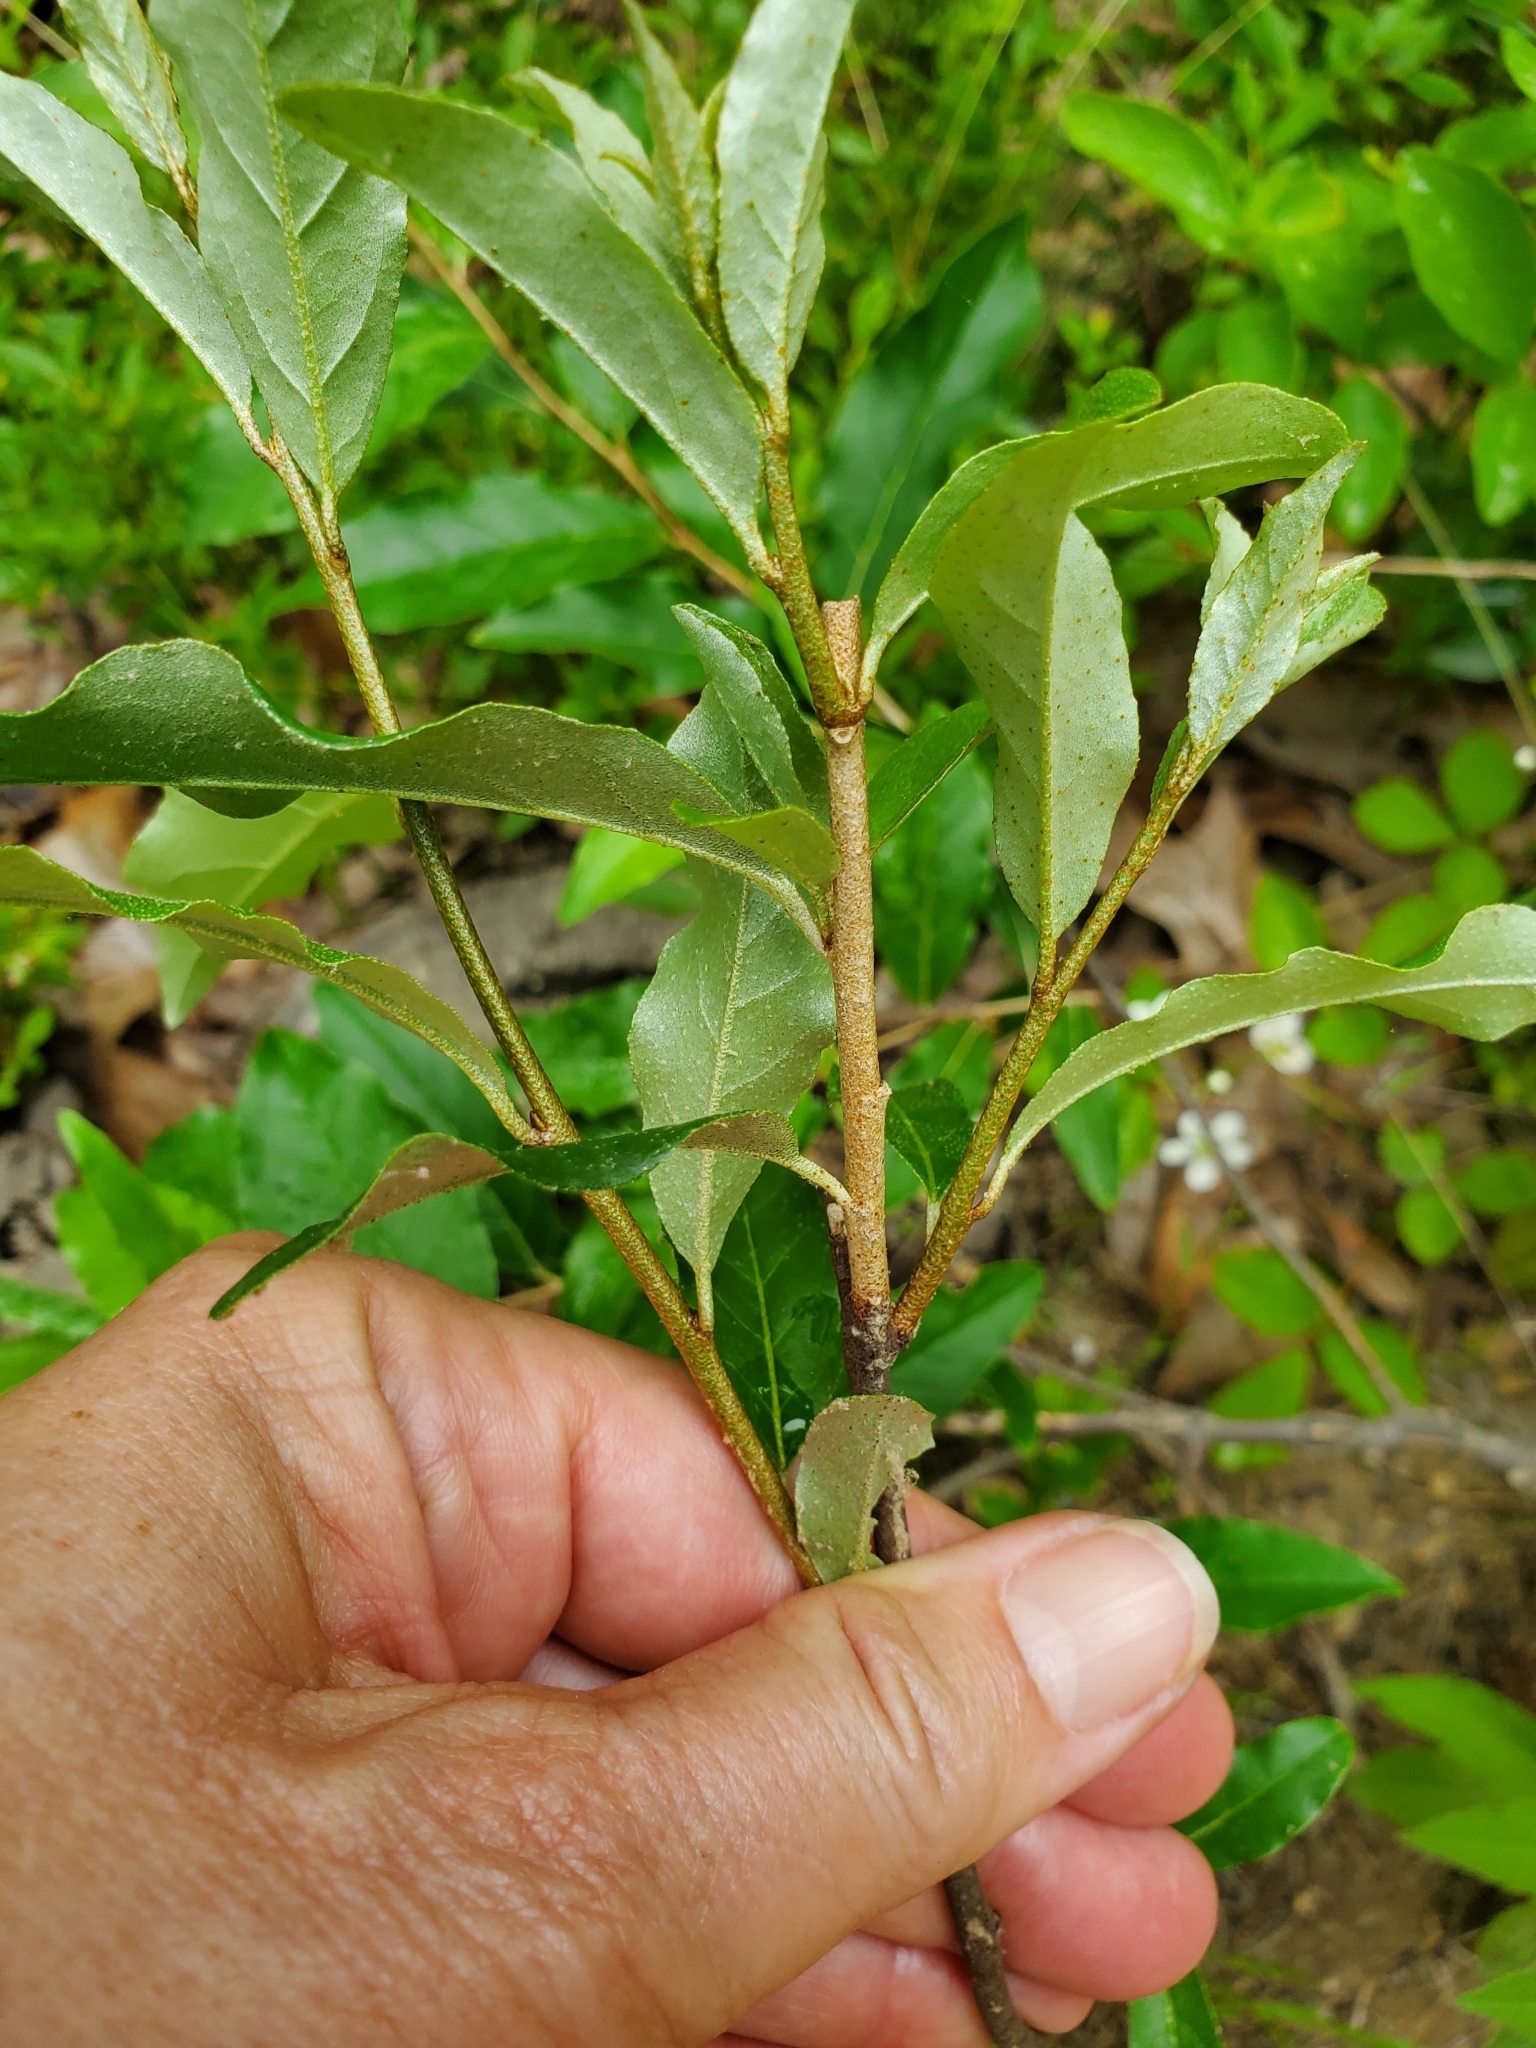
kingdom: Plantae
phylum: Tracheophyta
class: Magnoliopsida
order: Rosales
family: Elaeagnaceae
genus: Elaeagnus
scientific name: Elaeagnus umbellata
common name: Autumn olive
